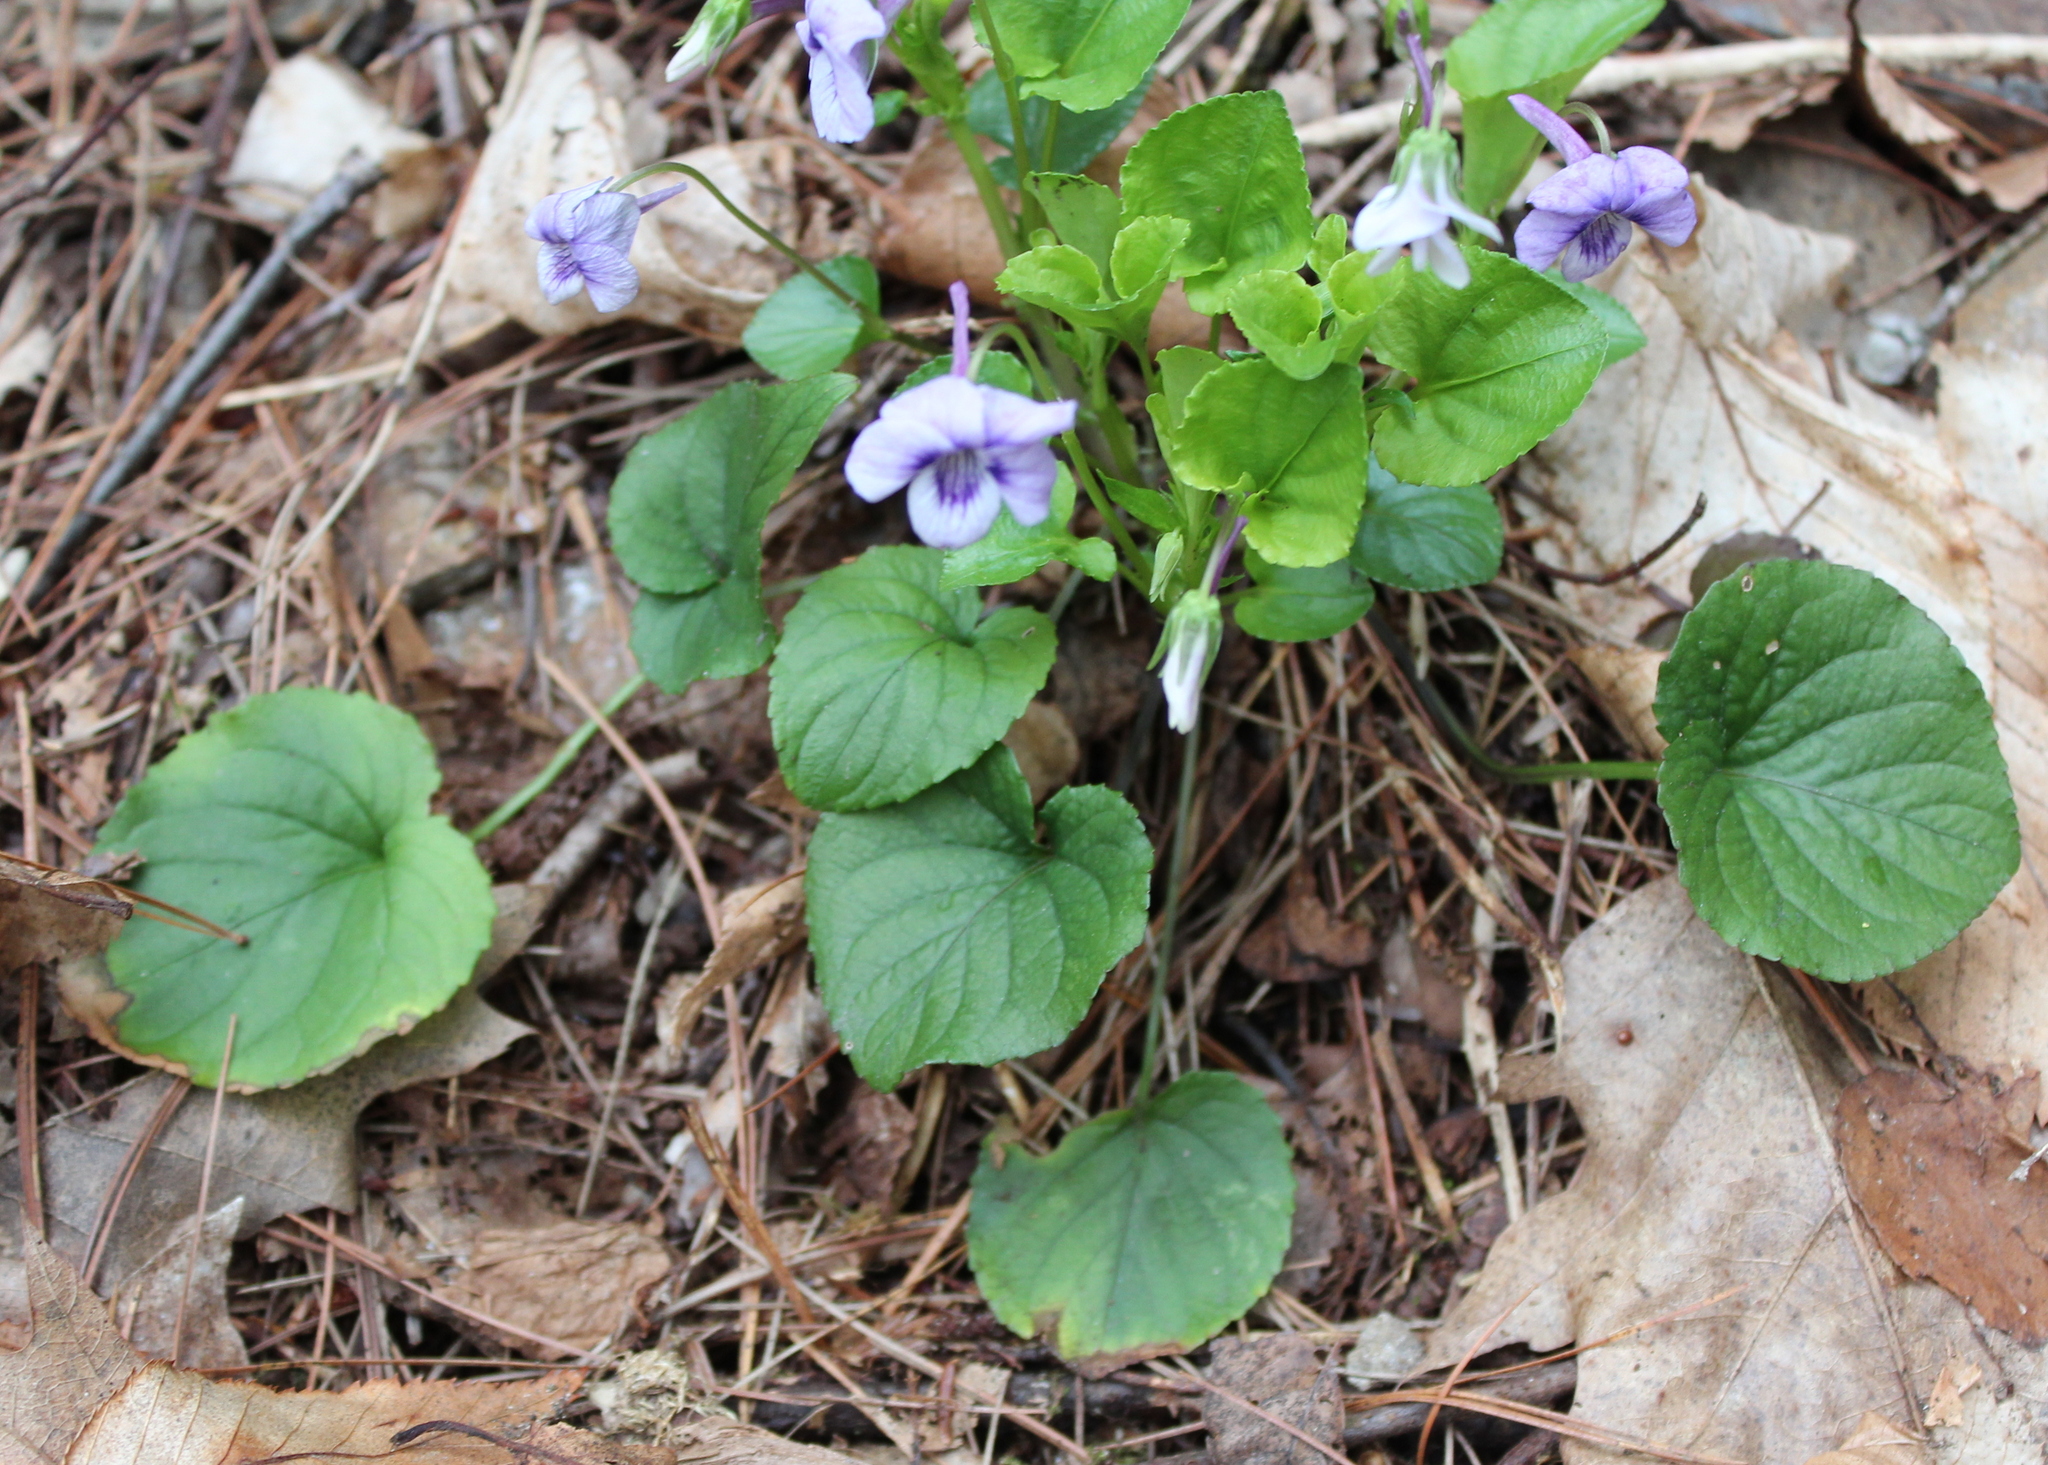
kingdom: Plantae
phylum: Tracheophyta
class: Magnoliopsida
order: Malpighiales
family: Violaceae
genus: Viola
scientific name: Viola rostrata
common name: Long-spur violet
